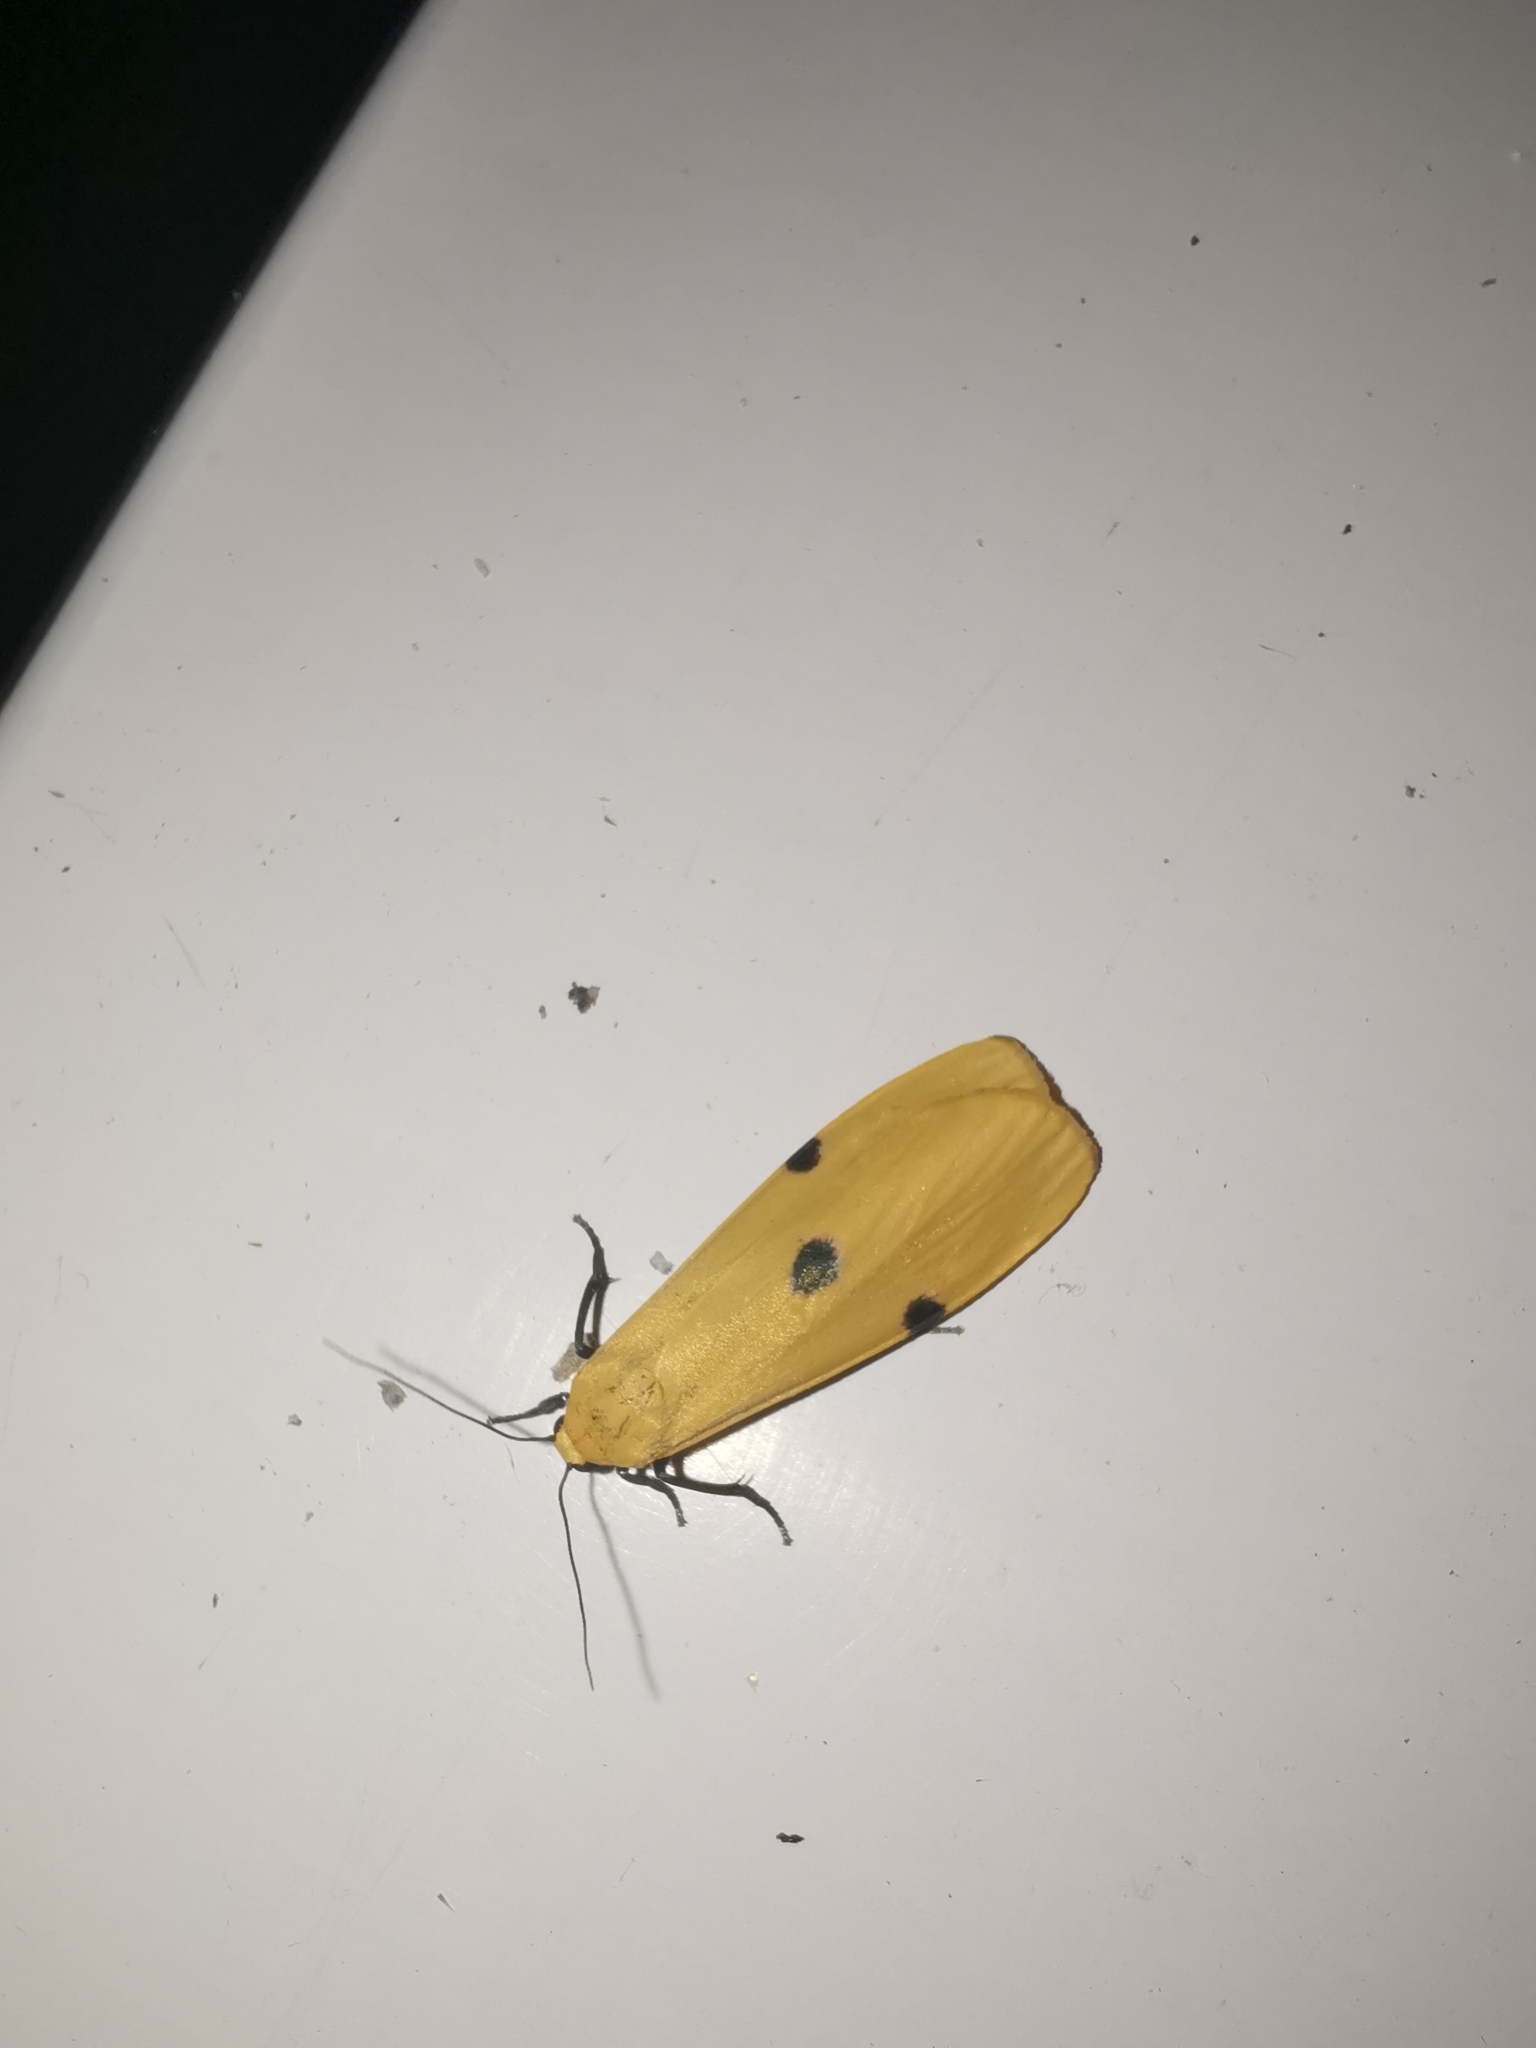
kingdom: Animalia
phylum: Arthropoda
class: Insecta
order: Lepidoptera
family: Erebidae
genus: Lithosia
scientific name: Lithosia quadra
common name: Four-spotted footman
